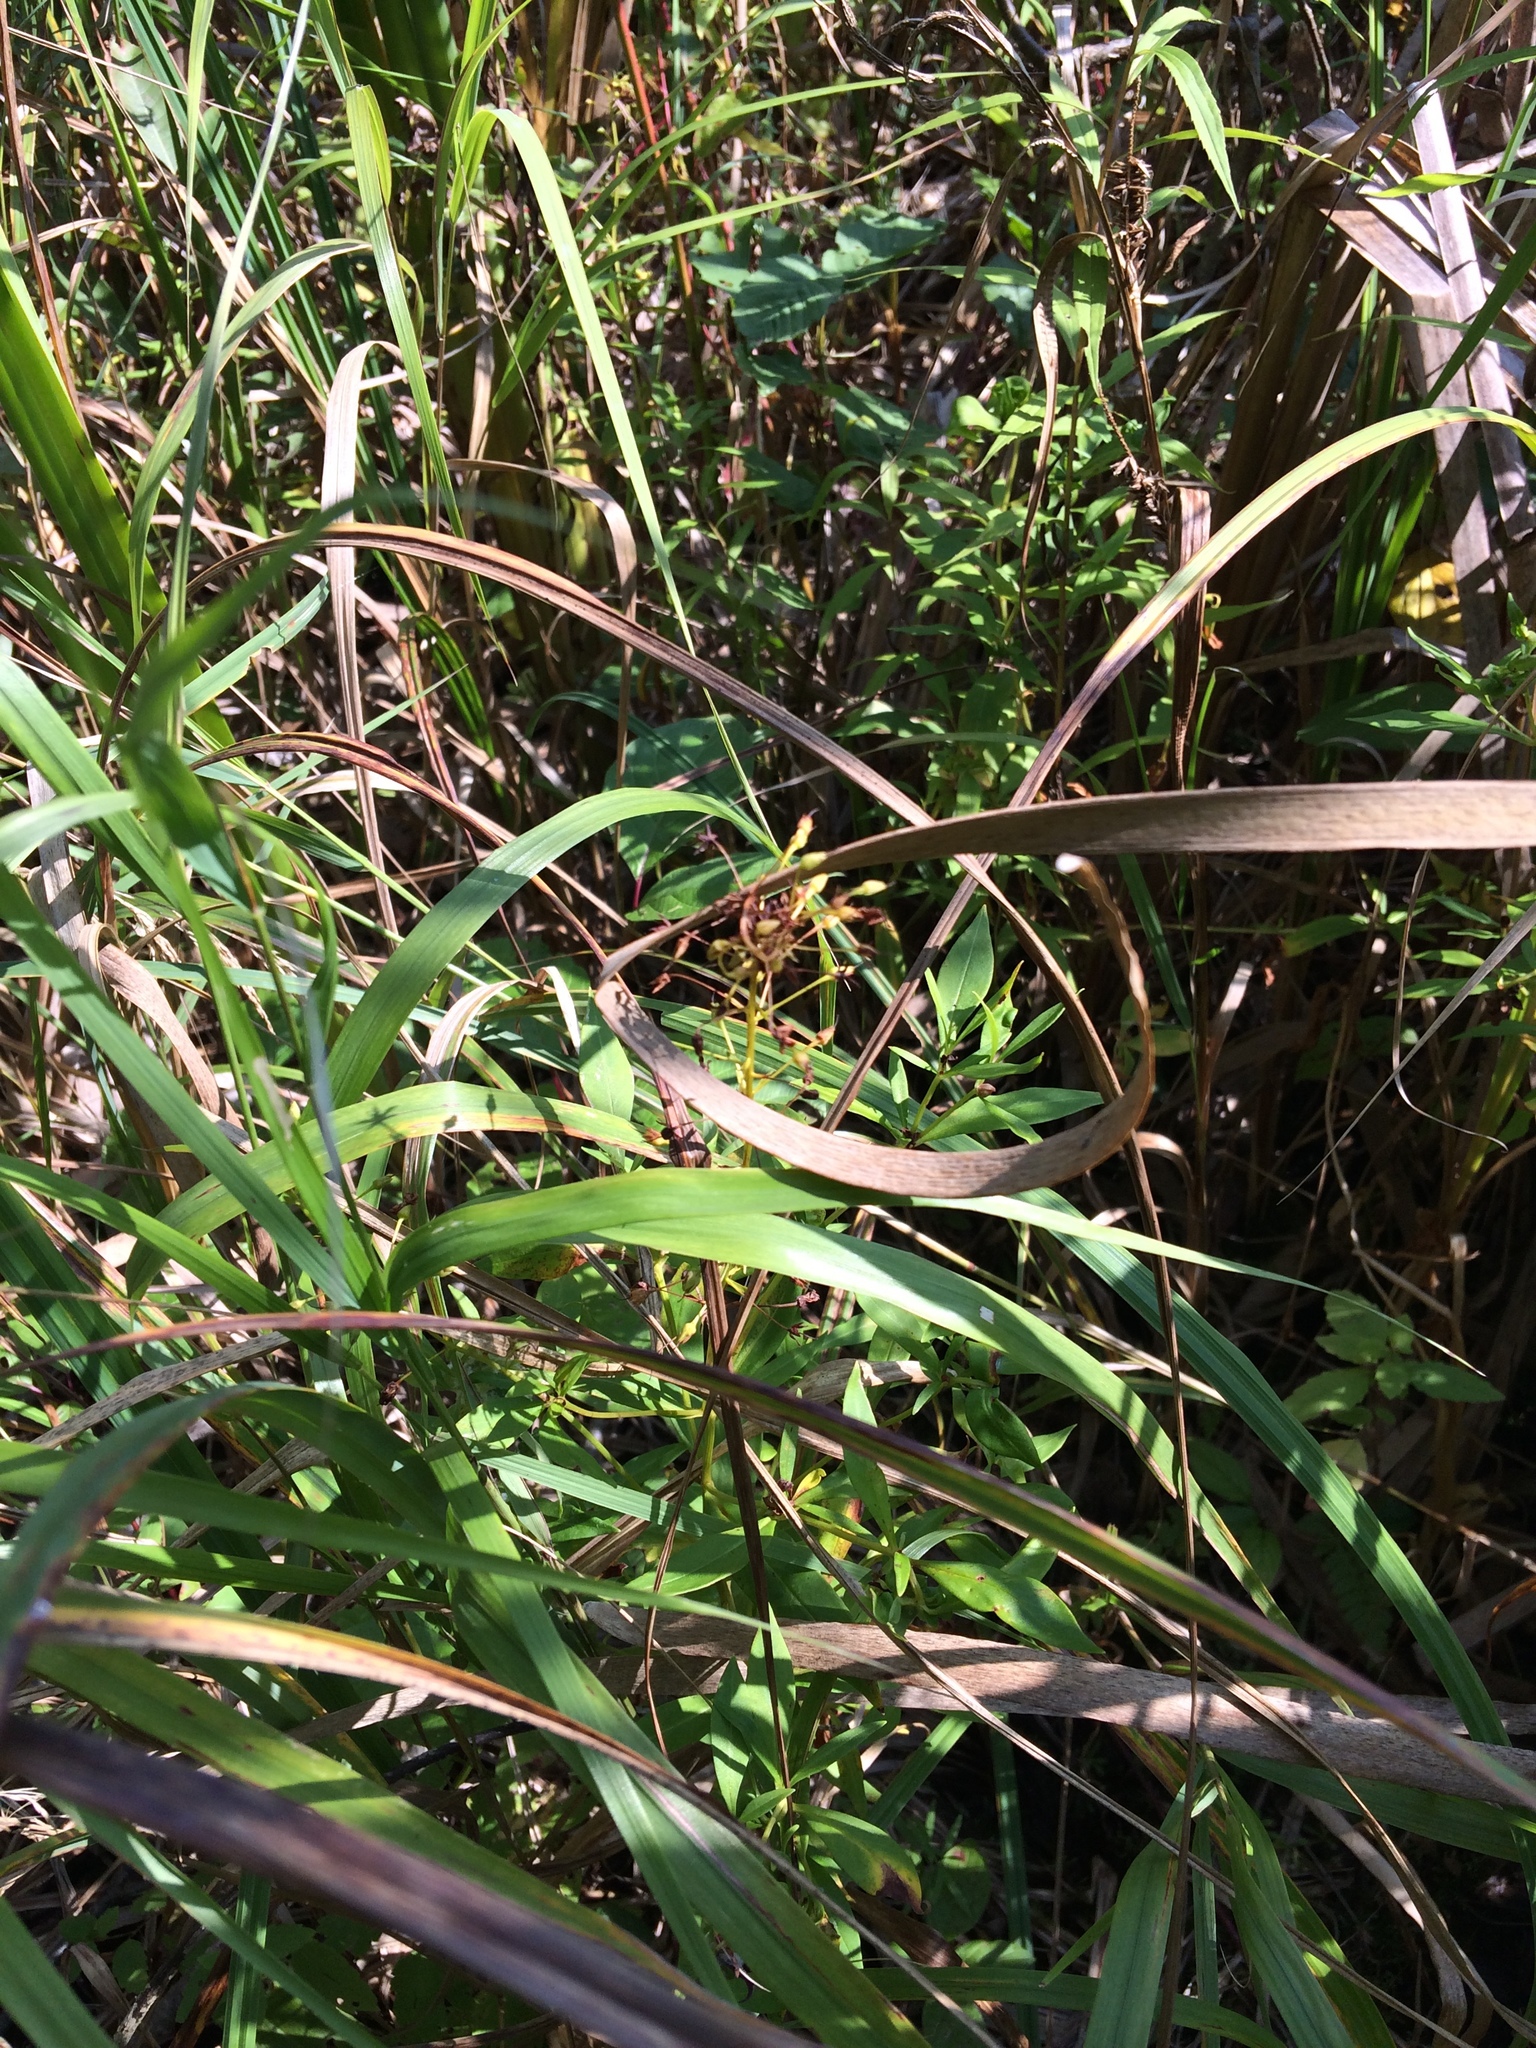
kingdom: Plantae
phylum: Tracheophyta
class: Magnoliopsida
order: Ericales
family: Primulaceae
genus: Lysimachia
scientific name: Lysimachia terrestris
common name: Lake loosestrife
